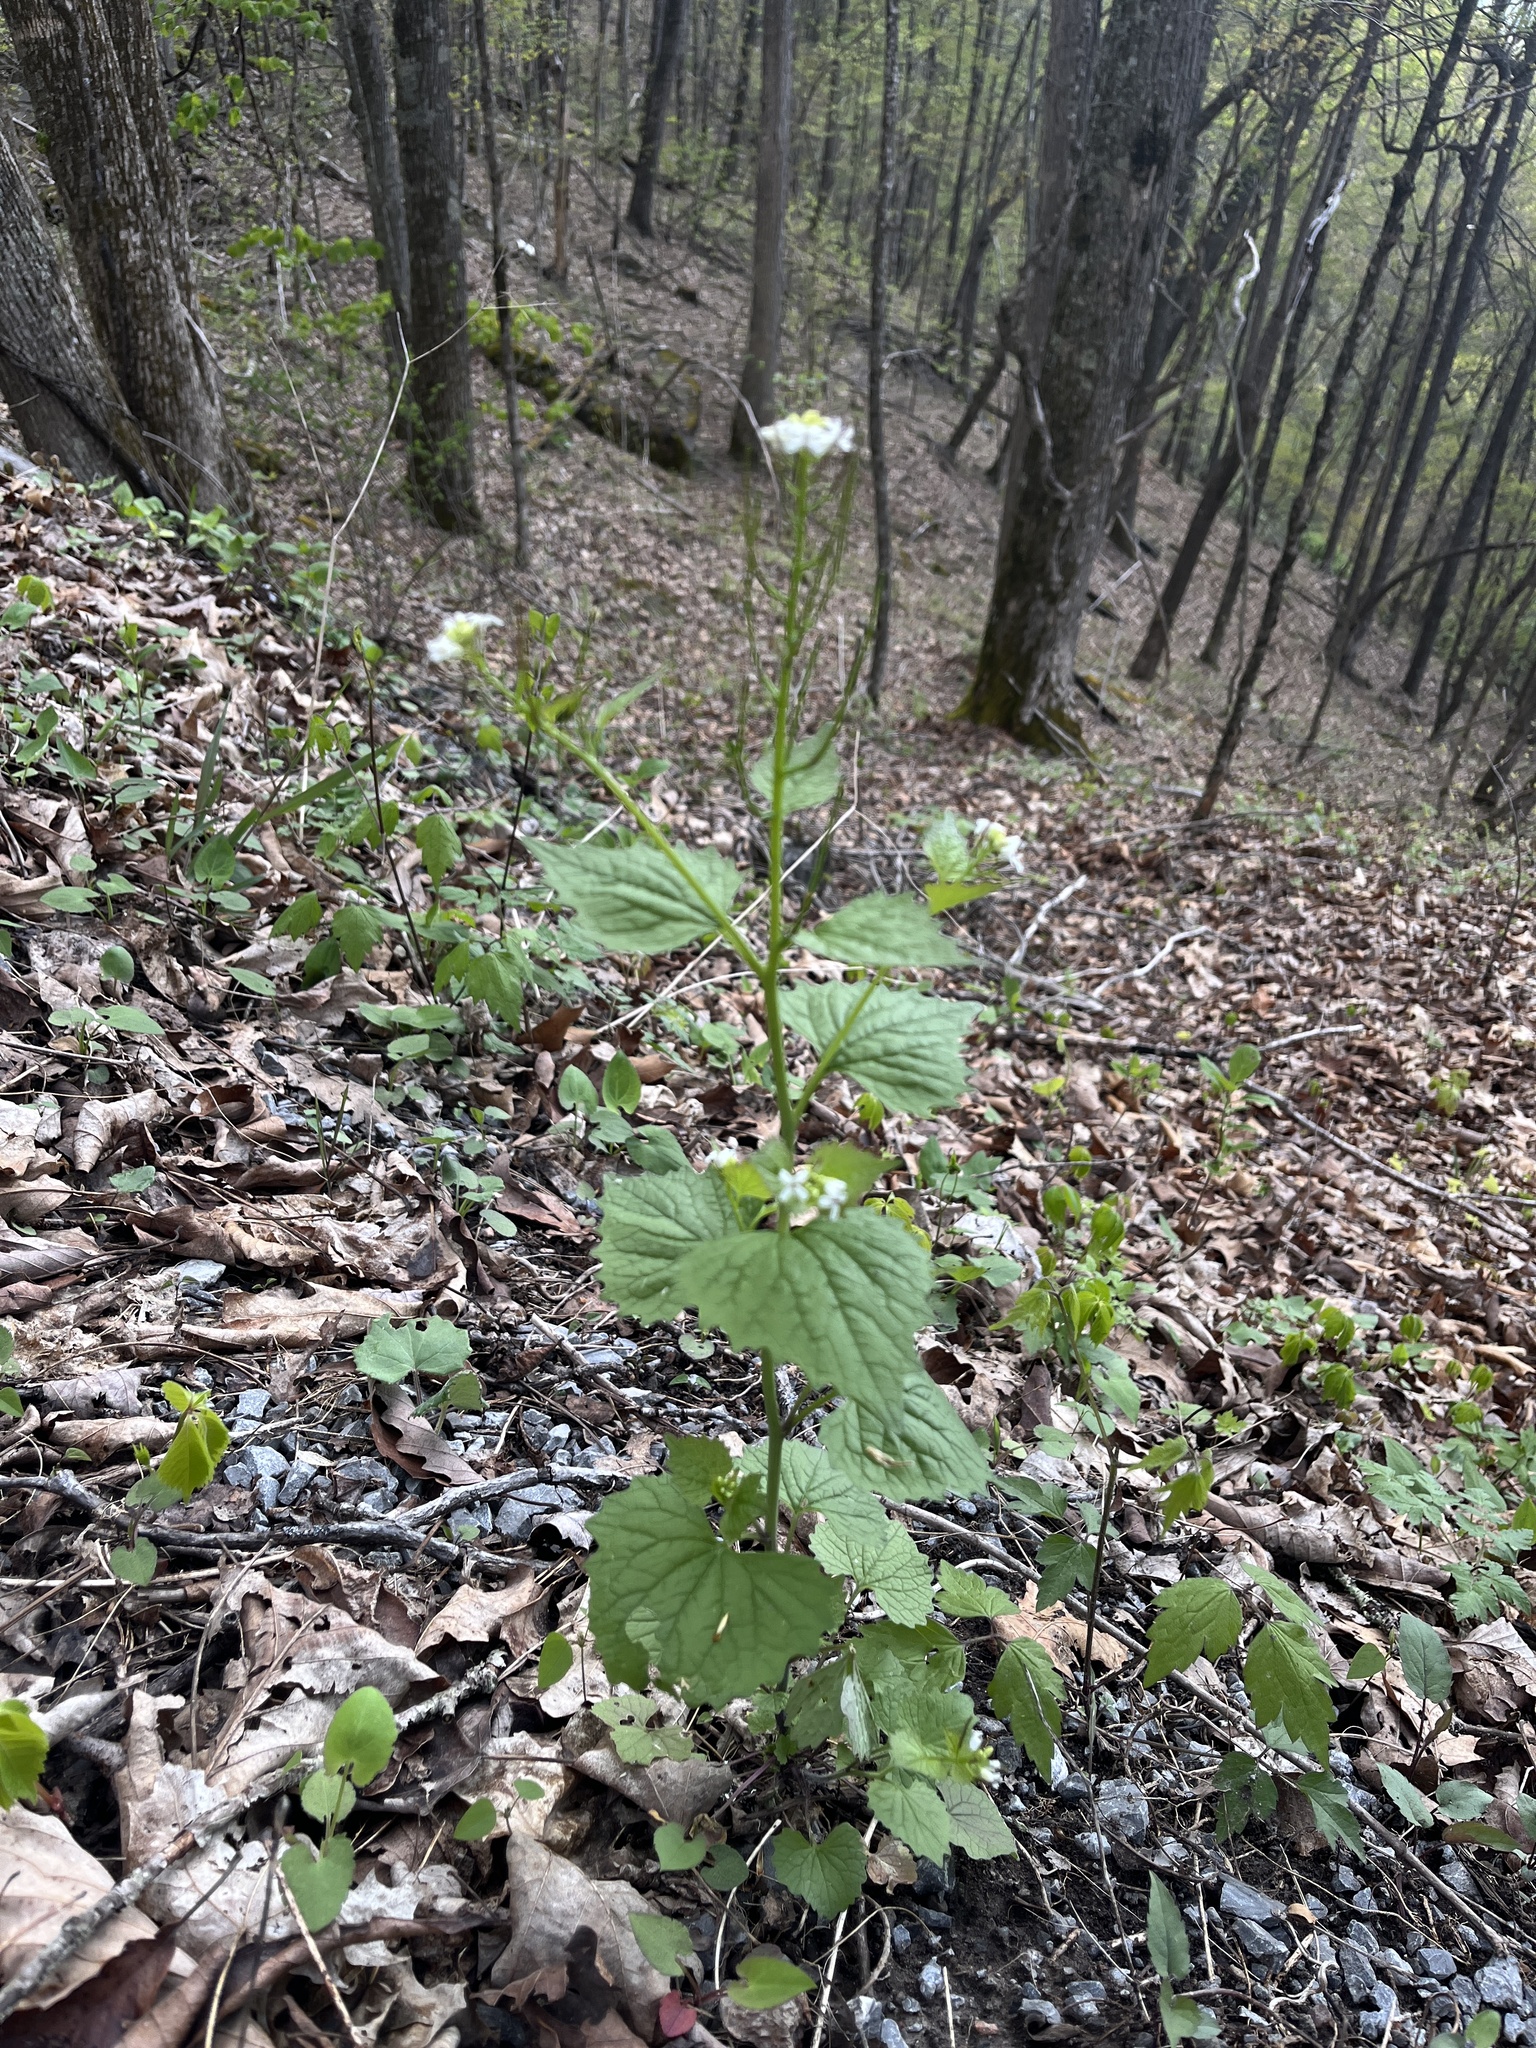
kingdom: Plantae
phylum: Tracheophyta
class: Magnoliopsida
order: Brassicales
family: Brassicaceae
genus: Alliaria
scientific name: Alliaria petiolata
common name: Garlic mustard
